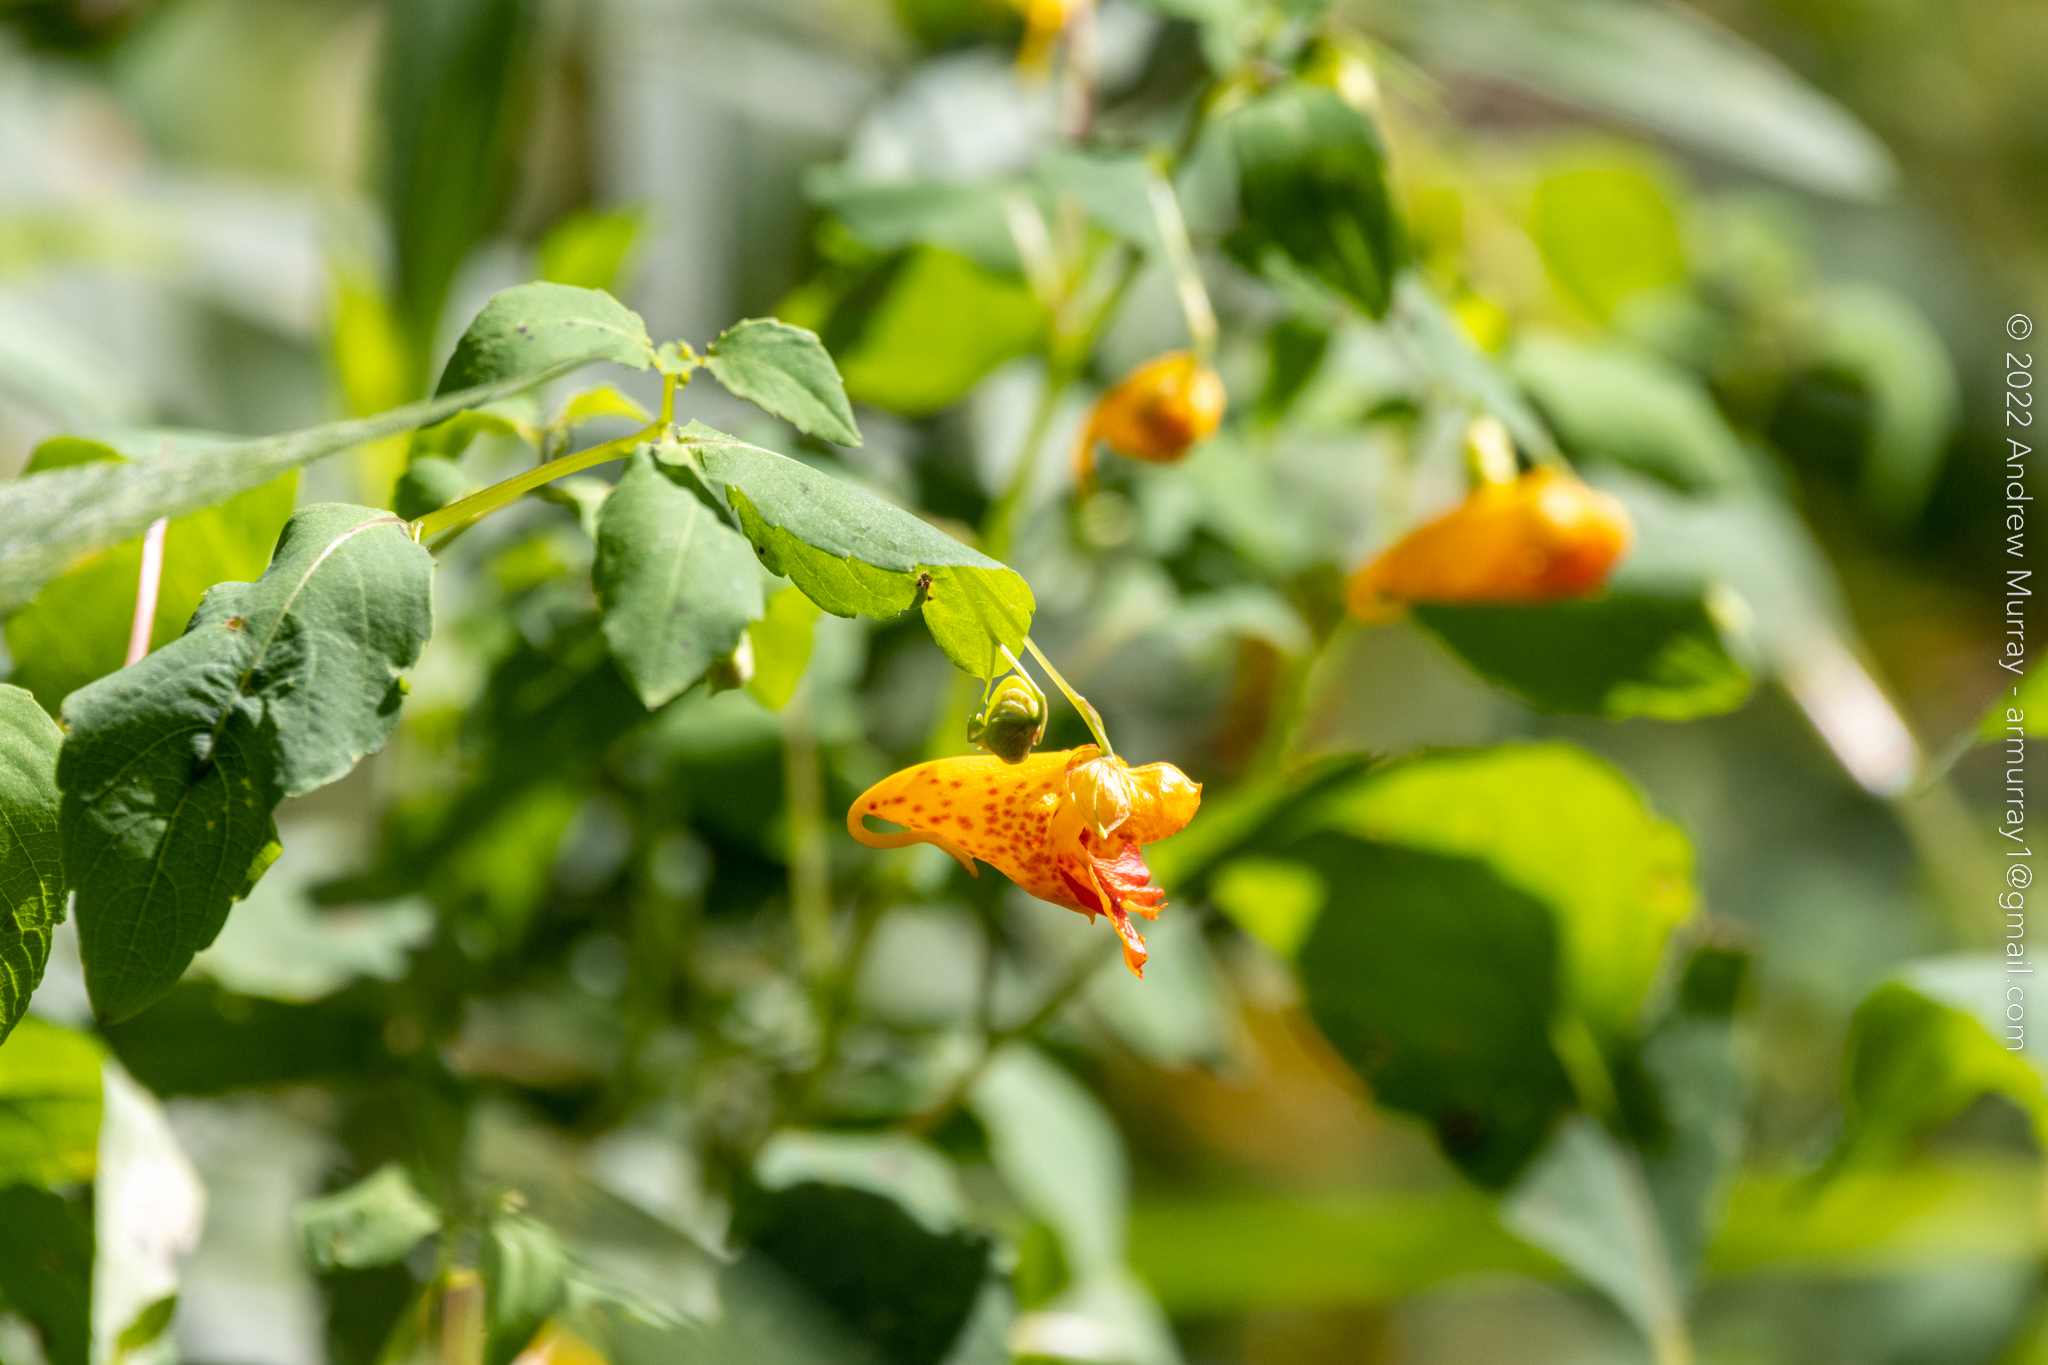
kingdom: Plantae
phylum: Tracheophyta
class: Magnoliopsida
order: Ericales
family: Balsaminaceae
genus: Impatiens
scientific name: Impatiens capensis
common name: Orange balsam
